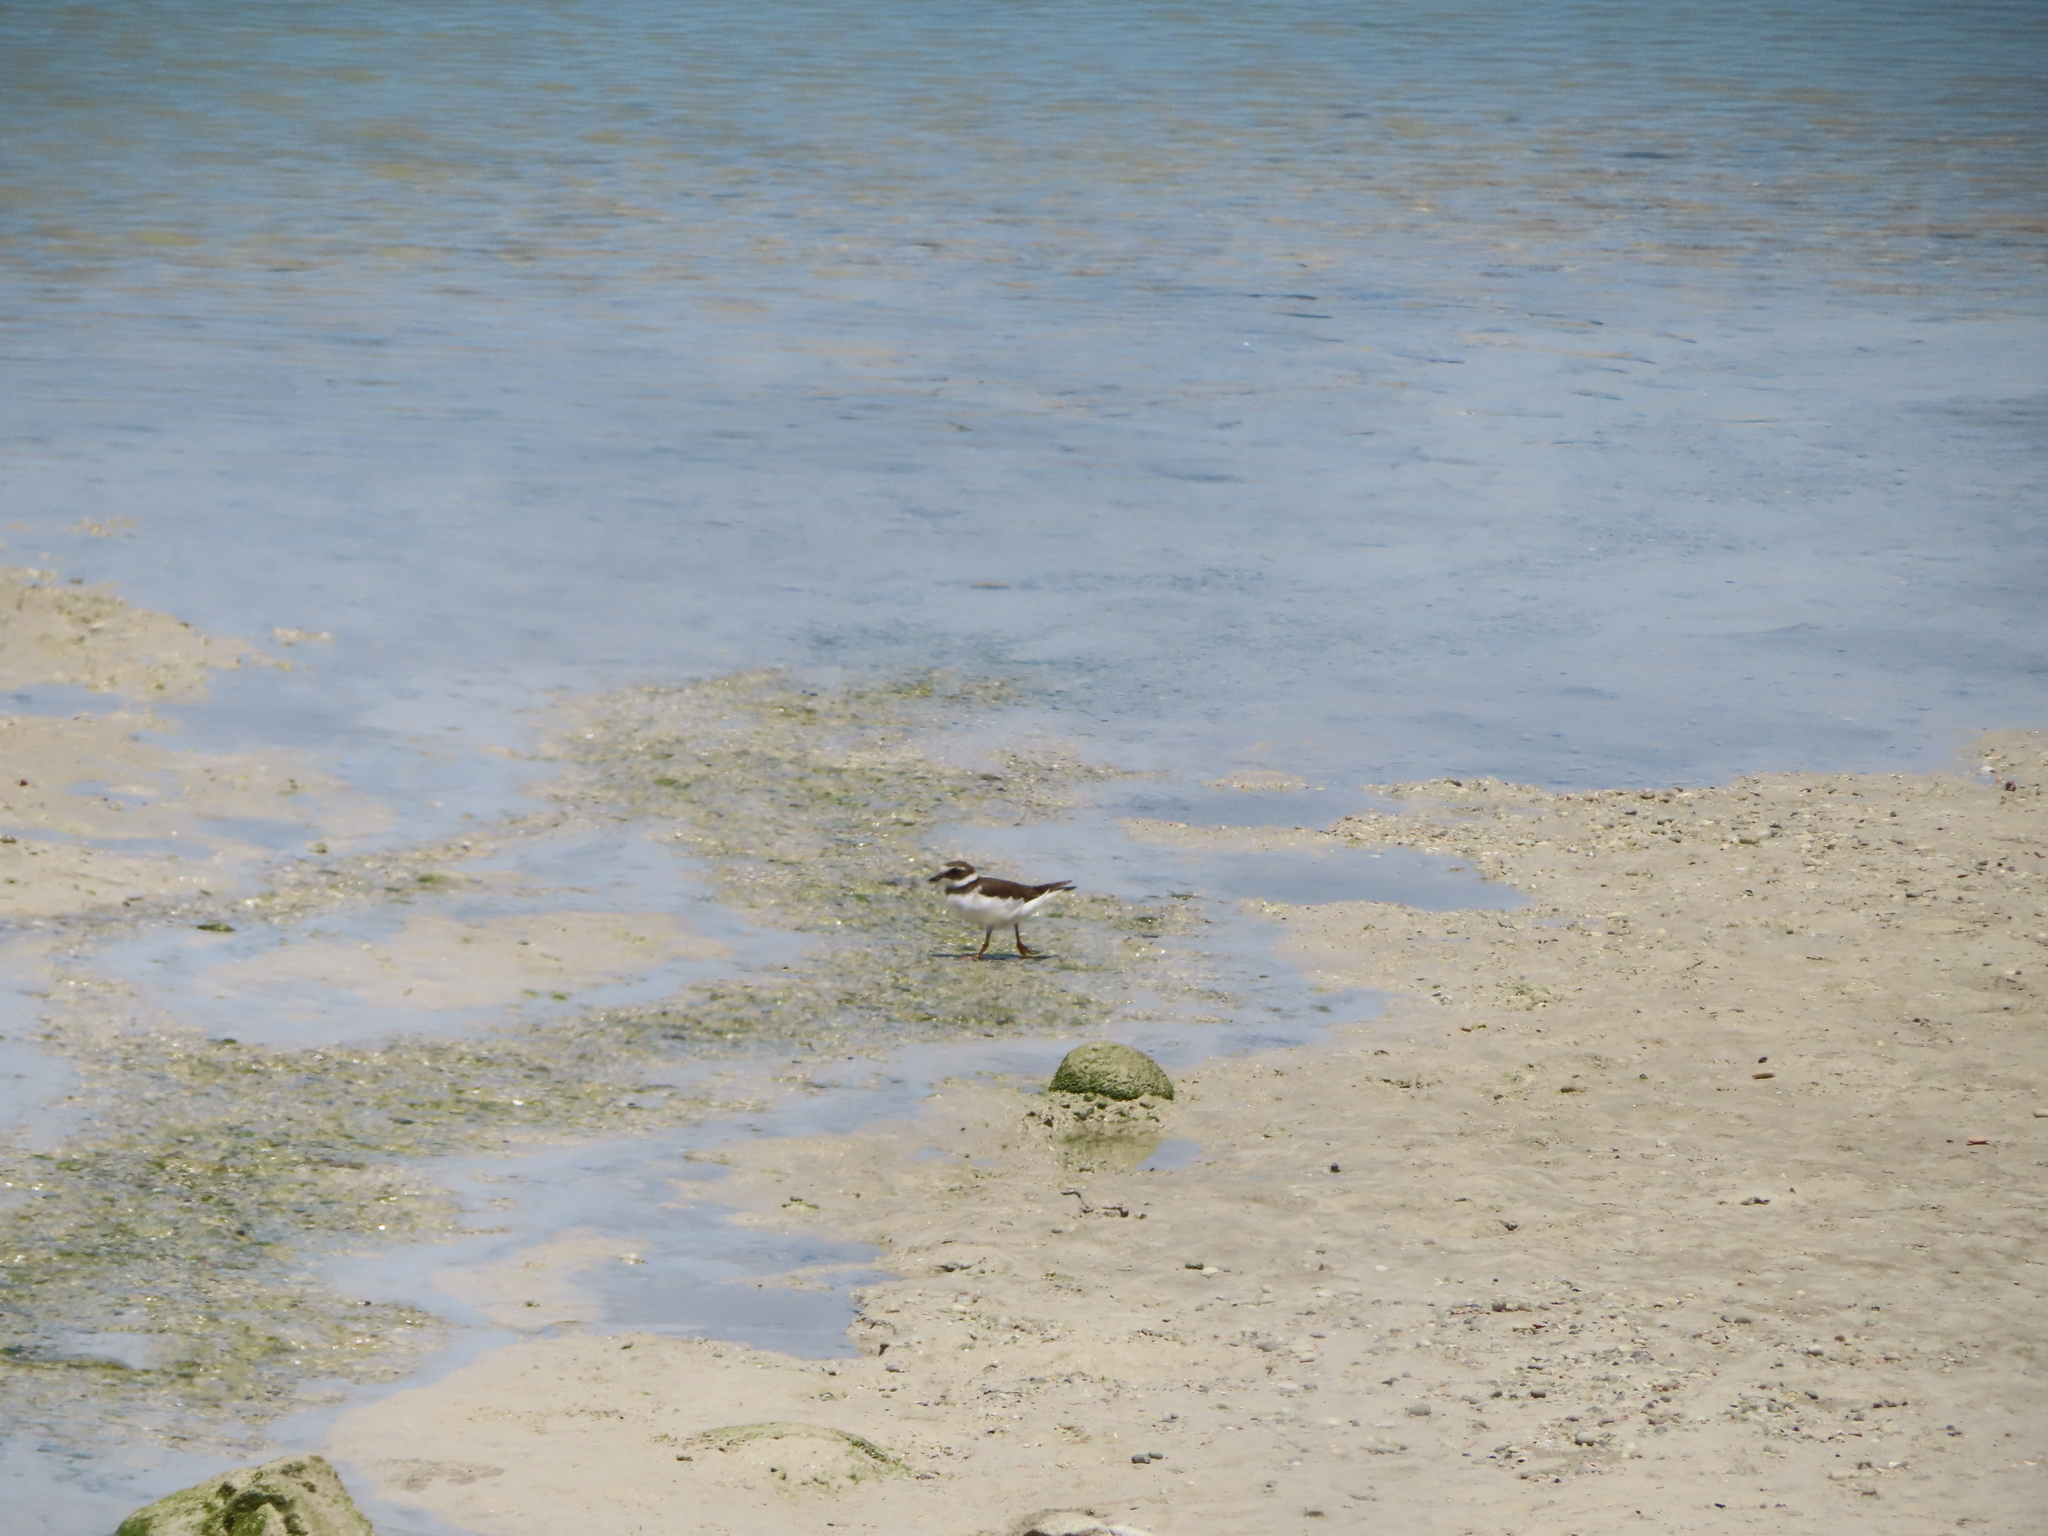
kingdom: Animalia
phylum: Chordata
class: Aves
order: Charadriiformes
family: Charadriidae
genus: Charadrius
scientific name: Charadrius hiaticula
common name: Common ringed plover
